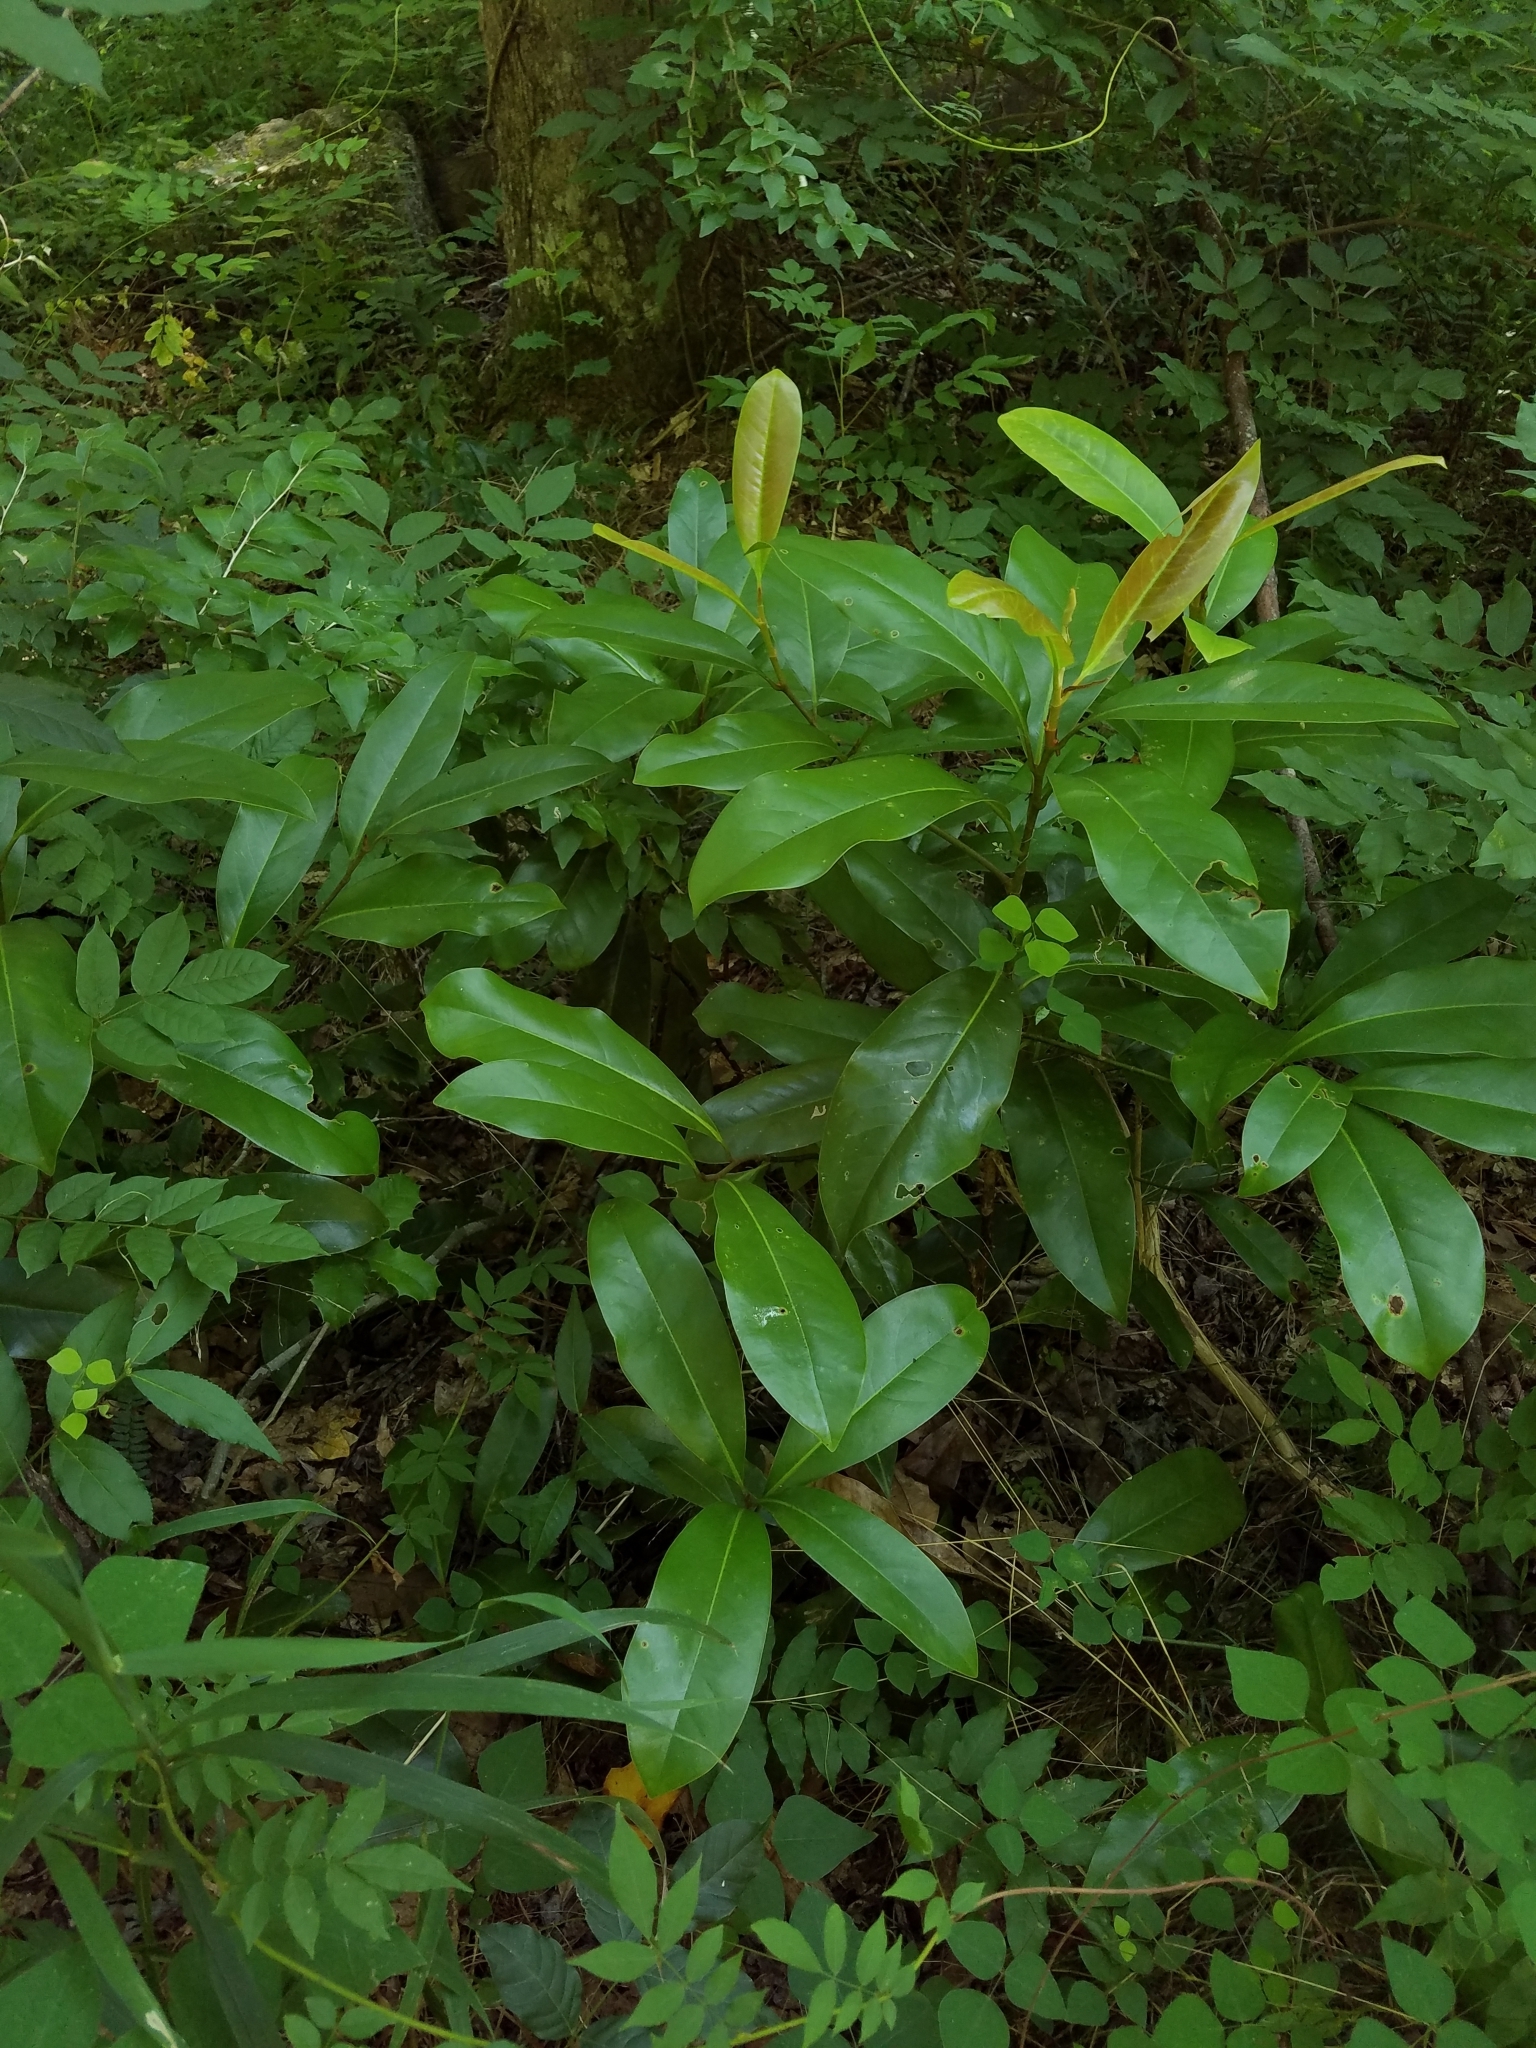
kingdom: Plantae
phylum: Tracheophyta
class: Magnoliopsida
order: Magnoliales
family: Magnoliaceae
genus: Magnolia
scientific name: Magnolia grandiflora
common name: Southern magnolia
